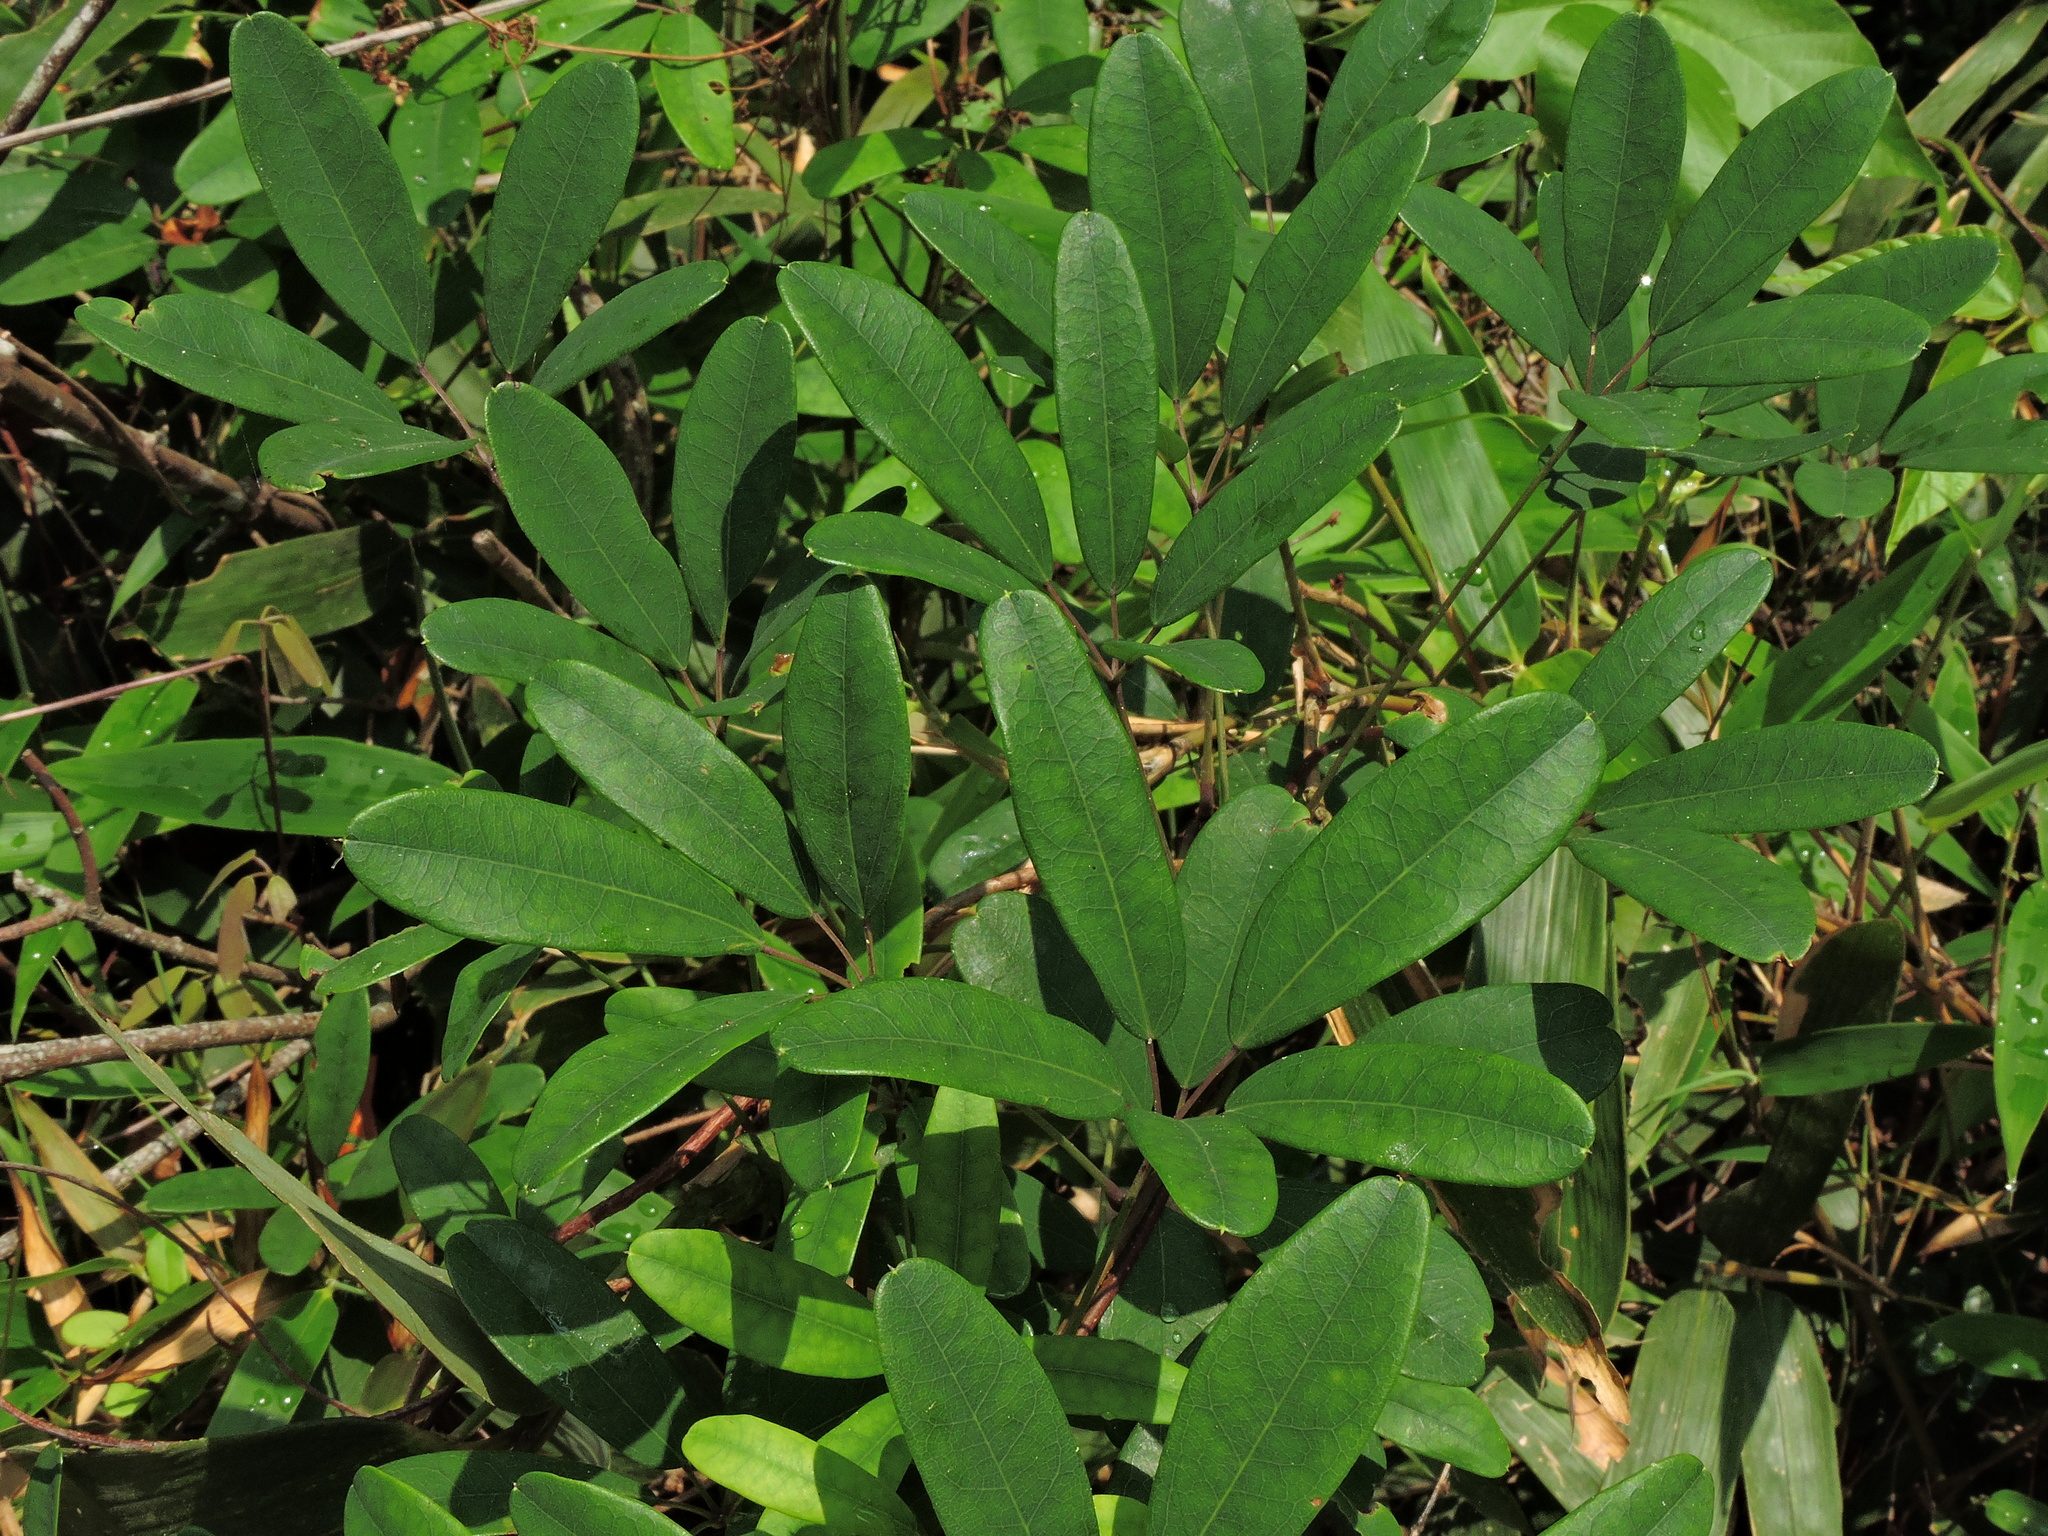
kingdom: Plantae
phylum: Tracheophyta
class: Magnoliopsida
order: Ranunculales
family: Lardizabalaceae
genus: Akebia
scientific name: Akebia longeracemosa
